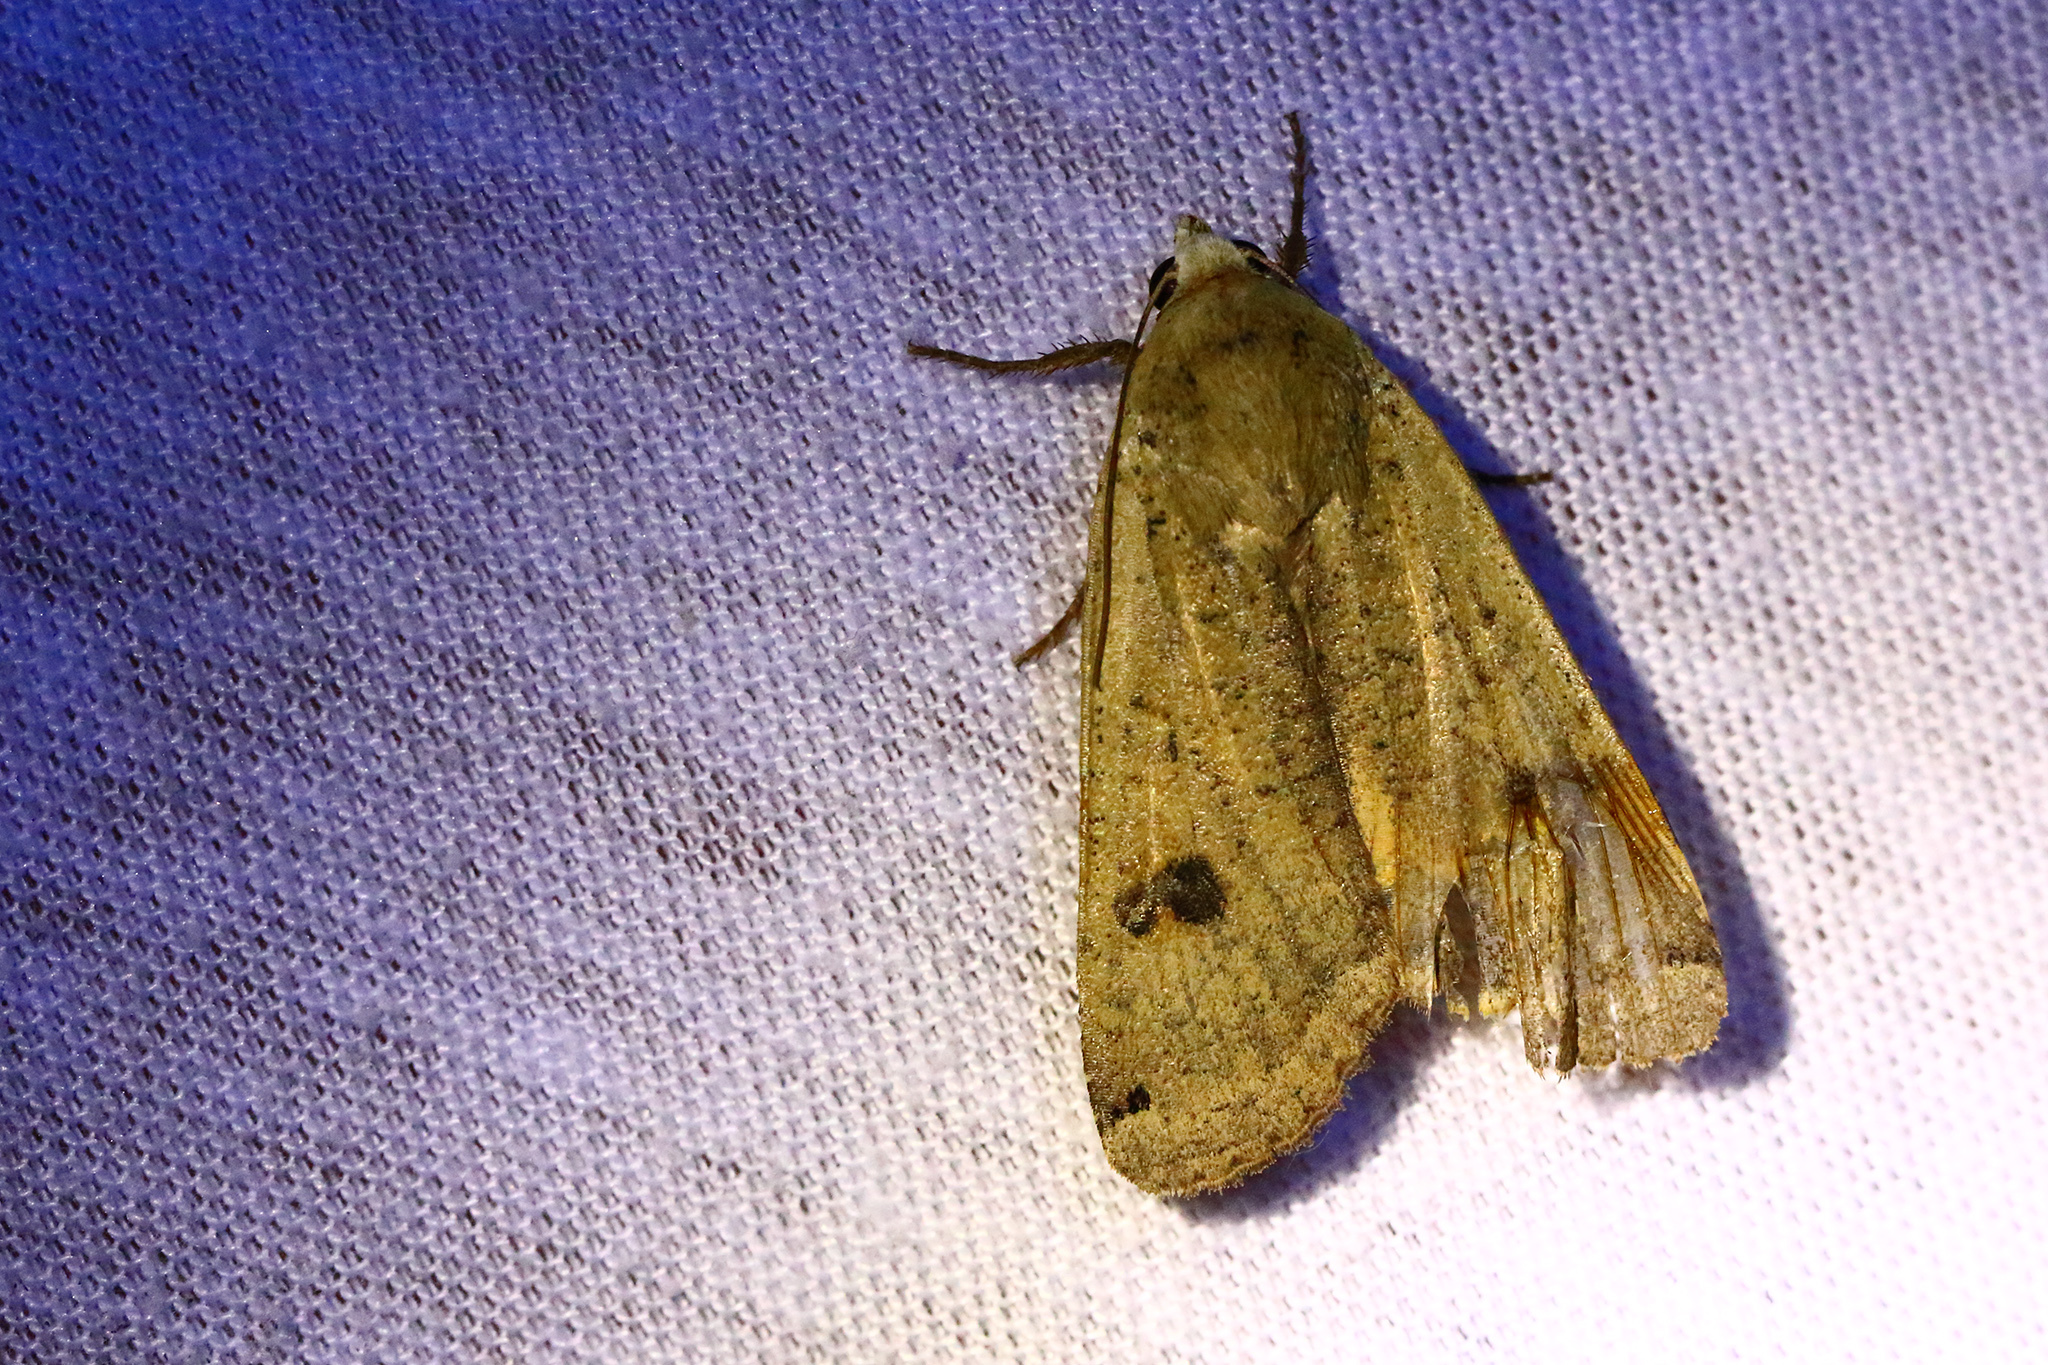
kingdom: Animalia
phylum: Arthropoda
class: Insecta
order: Lepidoptera
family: Noctuidae
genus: Noctua
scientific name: Noctua pronuba
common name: Large yellow underwing
